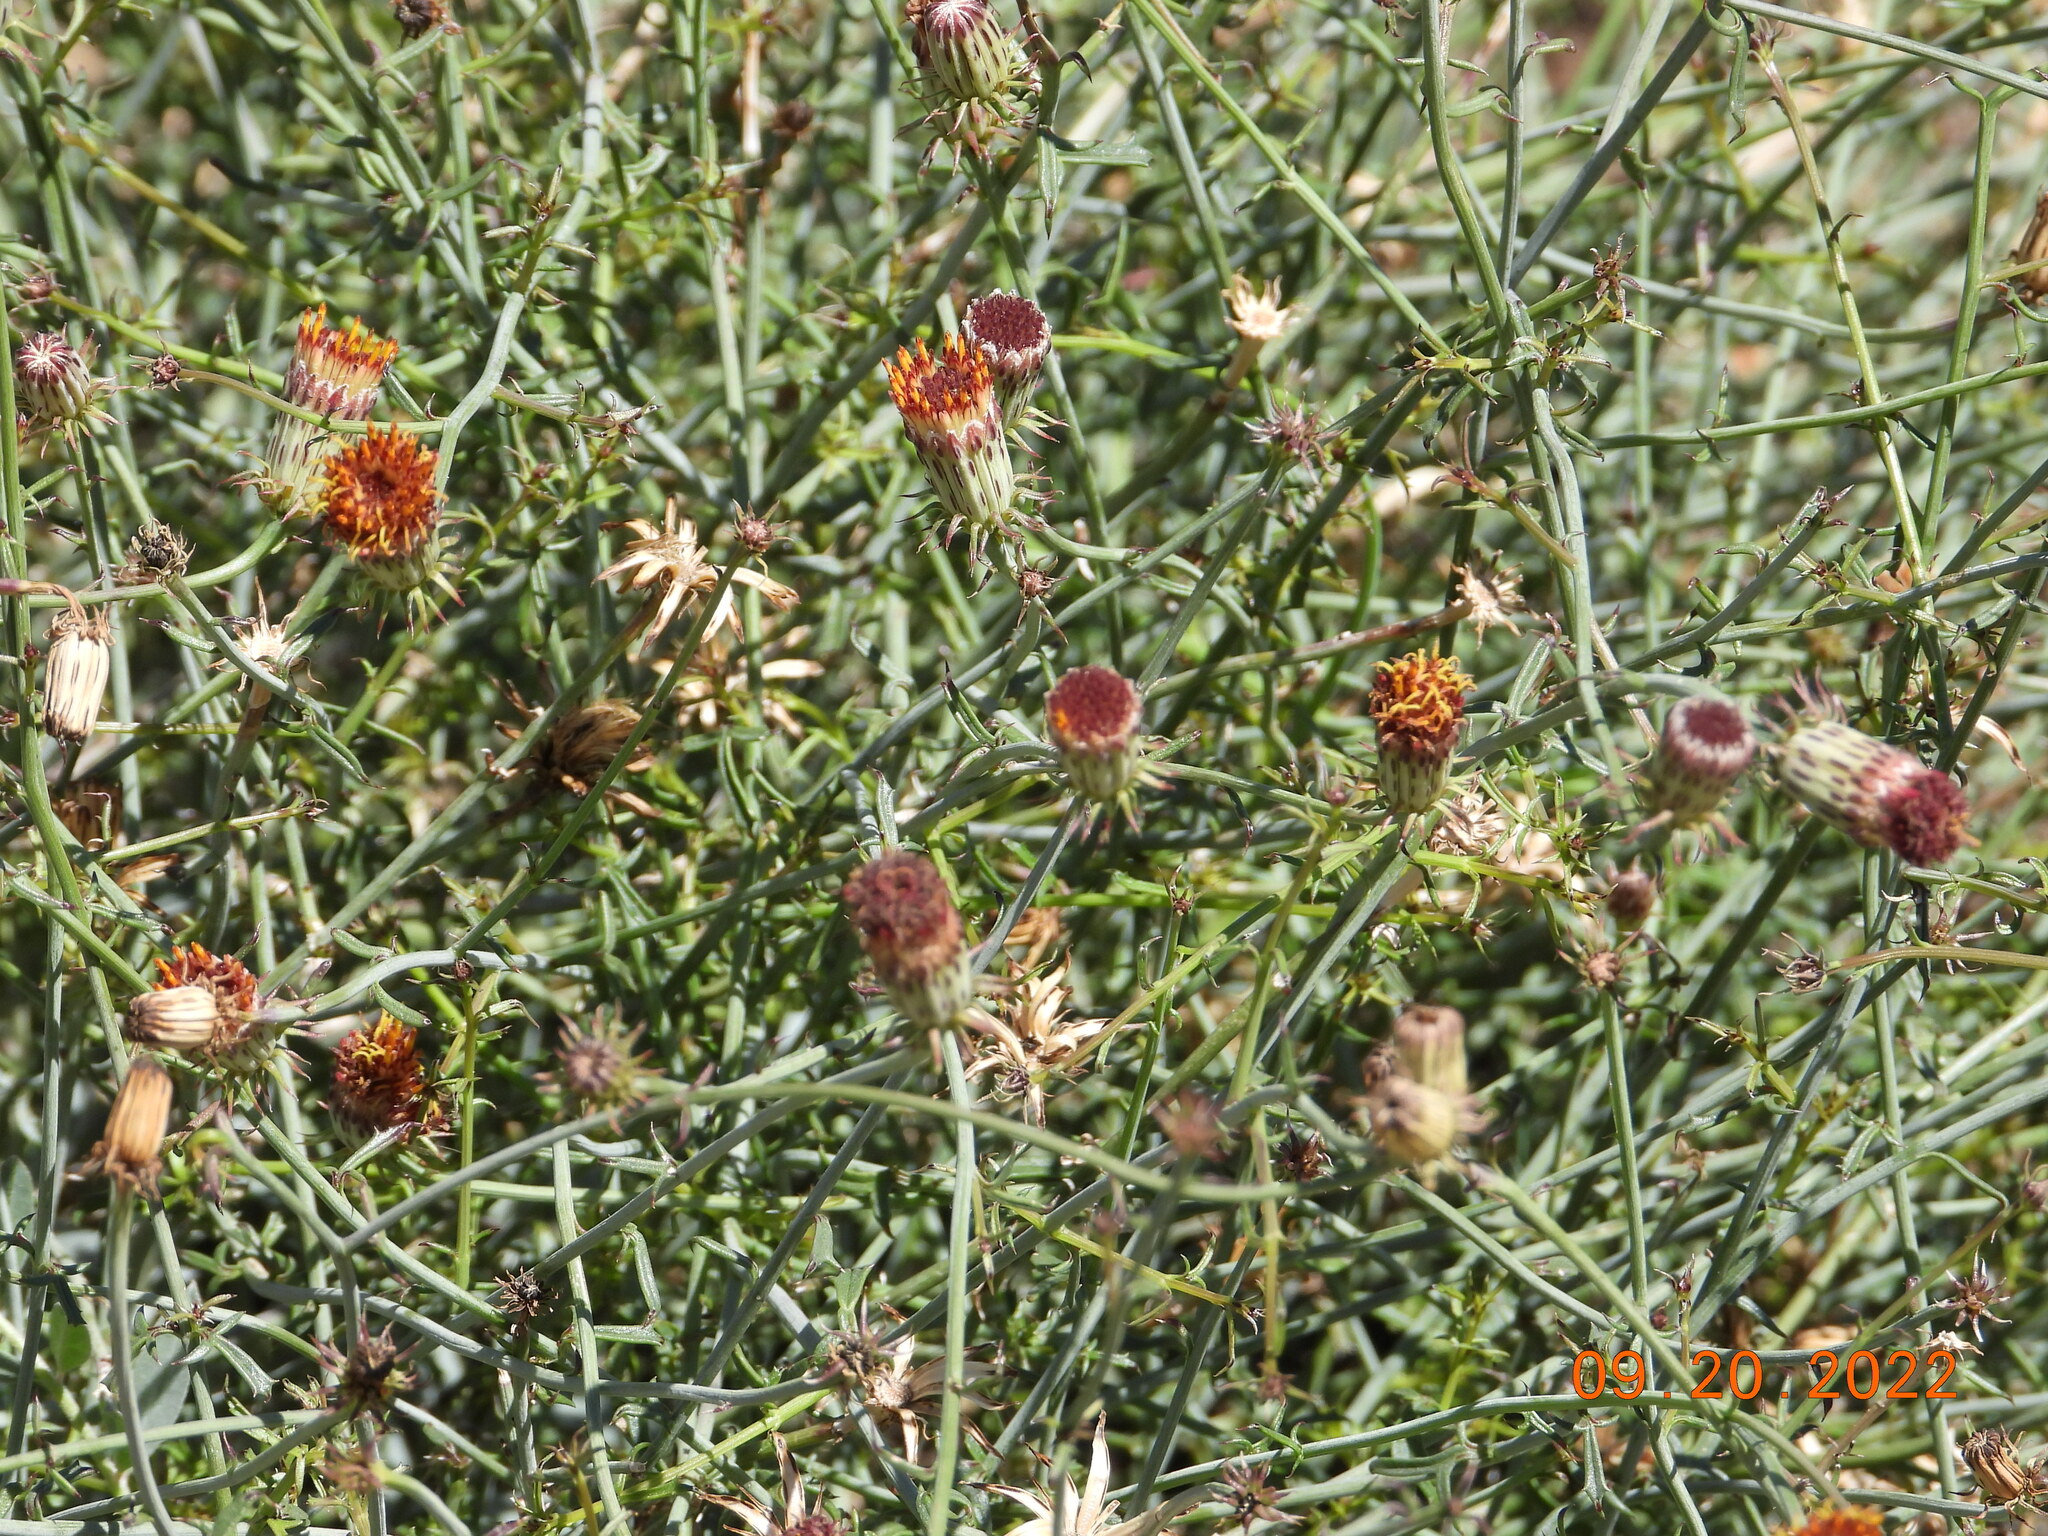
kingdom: Plantae
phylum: Tracheophyta
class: Magnoliopsida
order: Asterales
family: Asteraceae
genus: Adenophyllum
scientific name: Adenophyllum porophylloides
